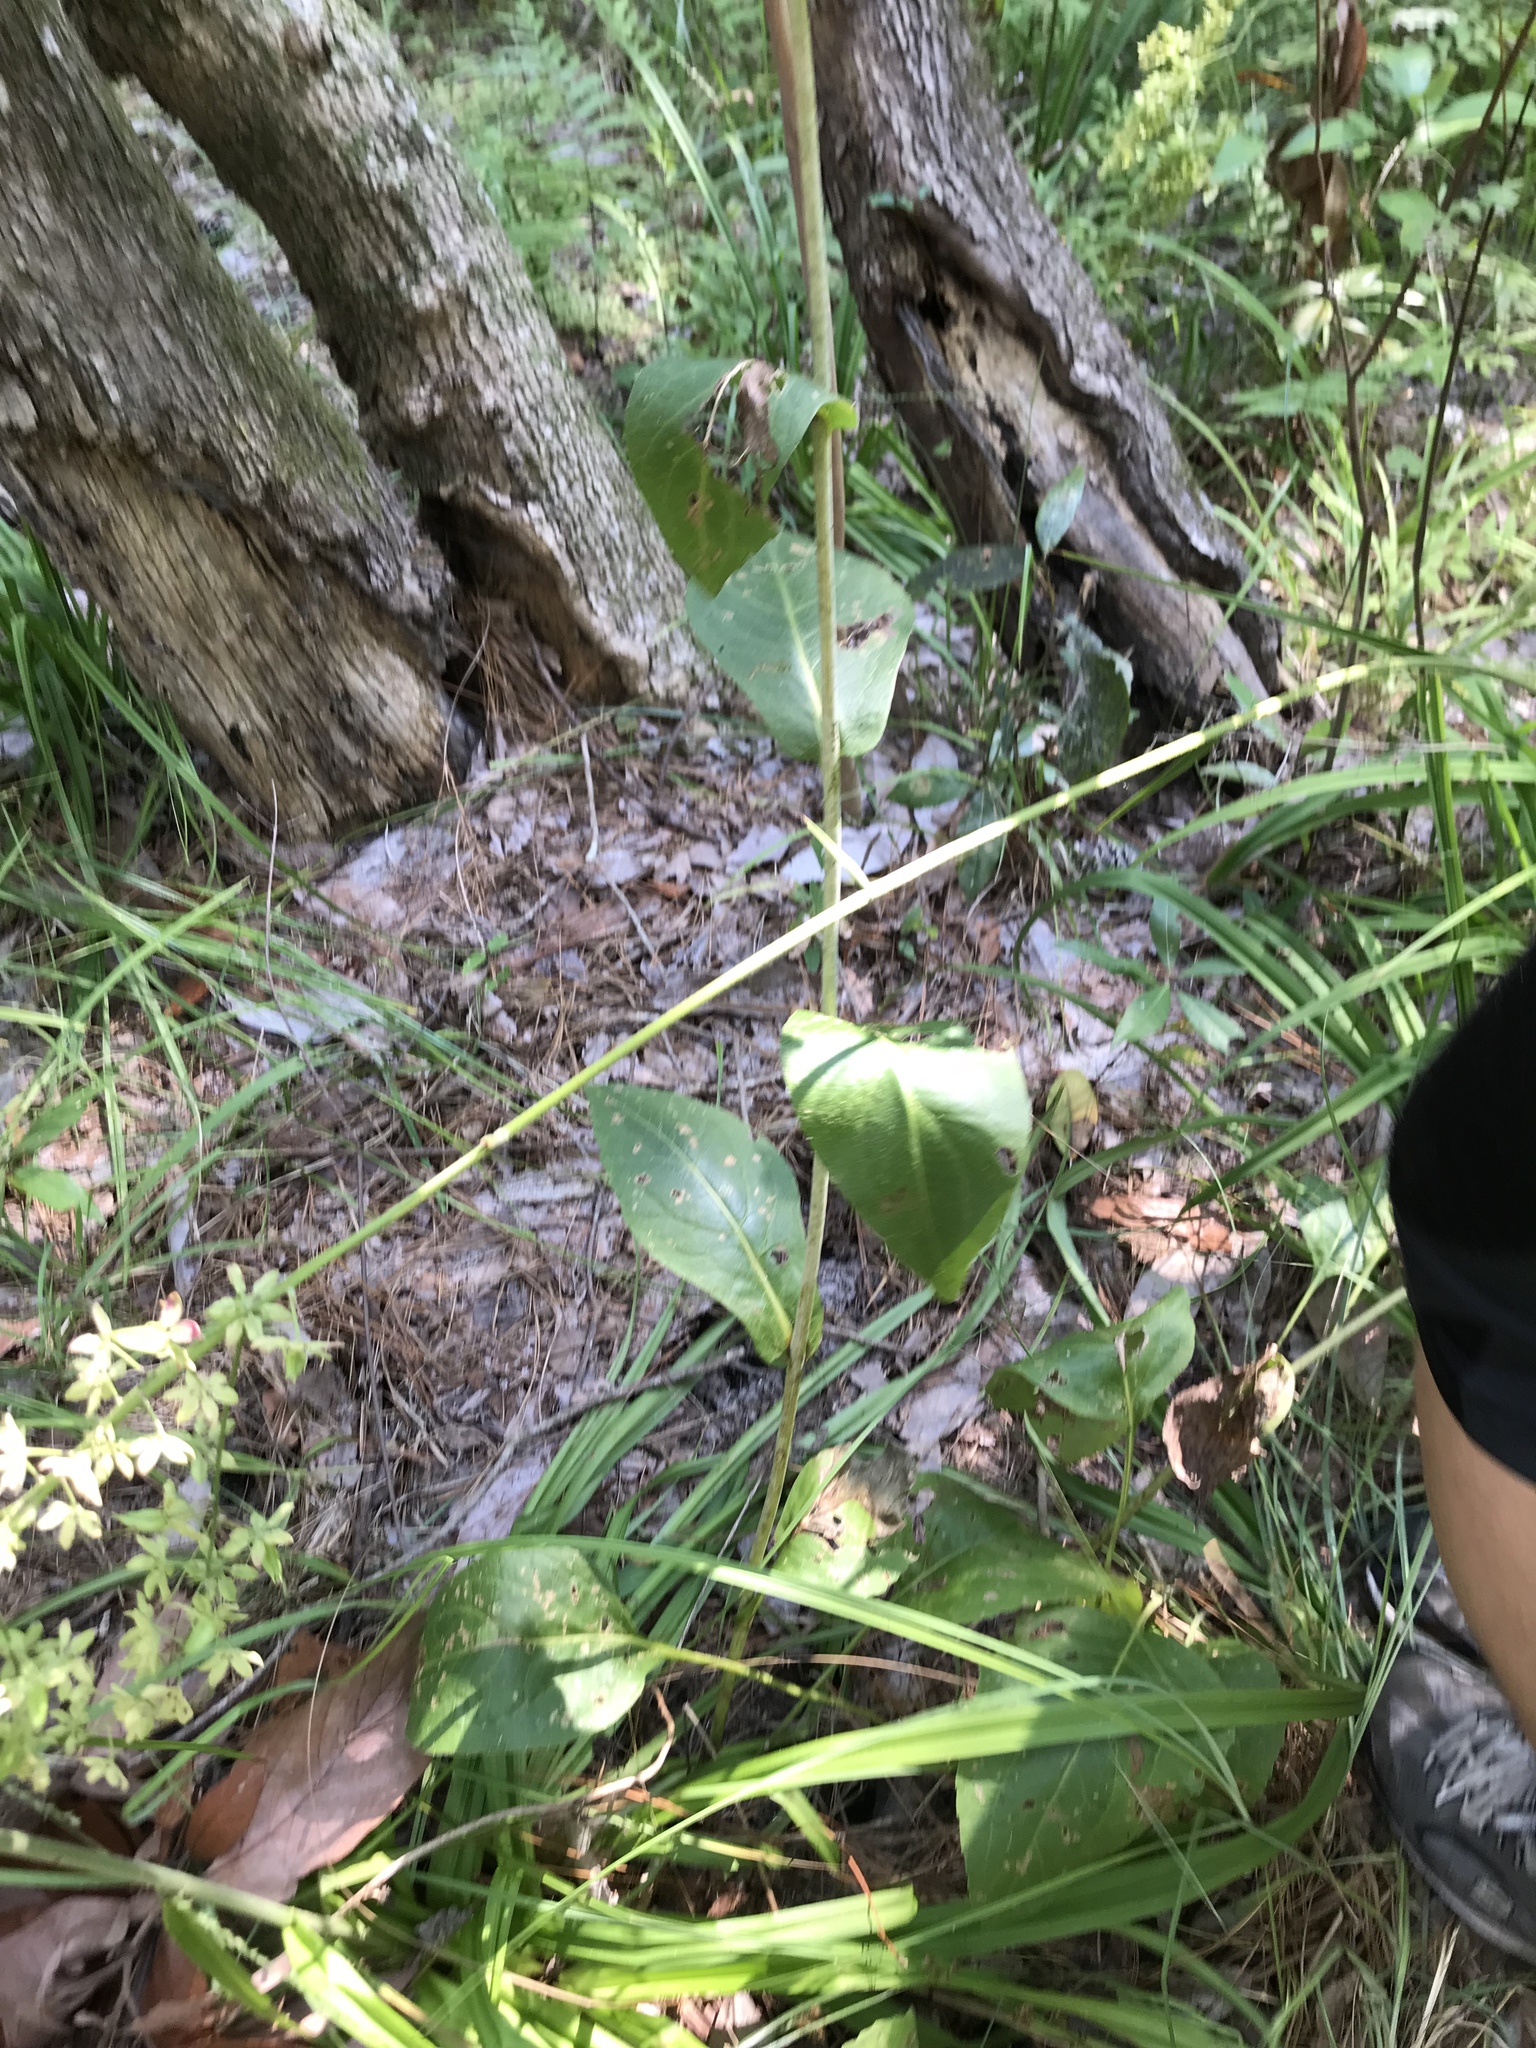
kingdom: Plantae
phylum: Tracheophyta
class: Magnoliopsida
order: Asterales
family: Asteraceae
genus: Rudbeckia
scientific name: Rudbeckia scabrifolia
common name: Rough-leaf coneflower
